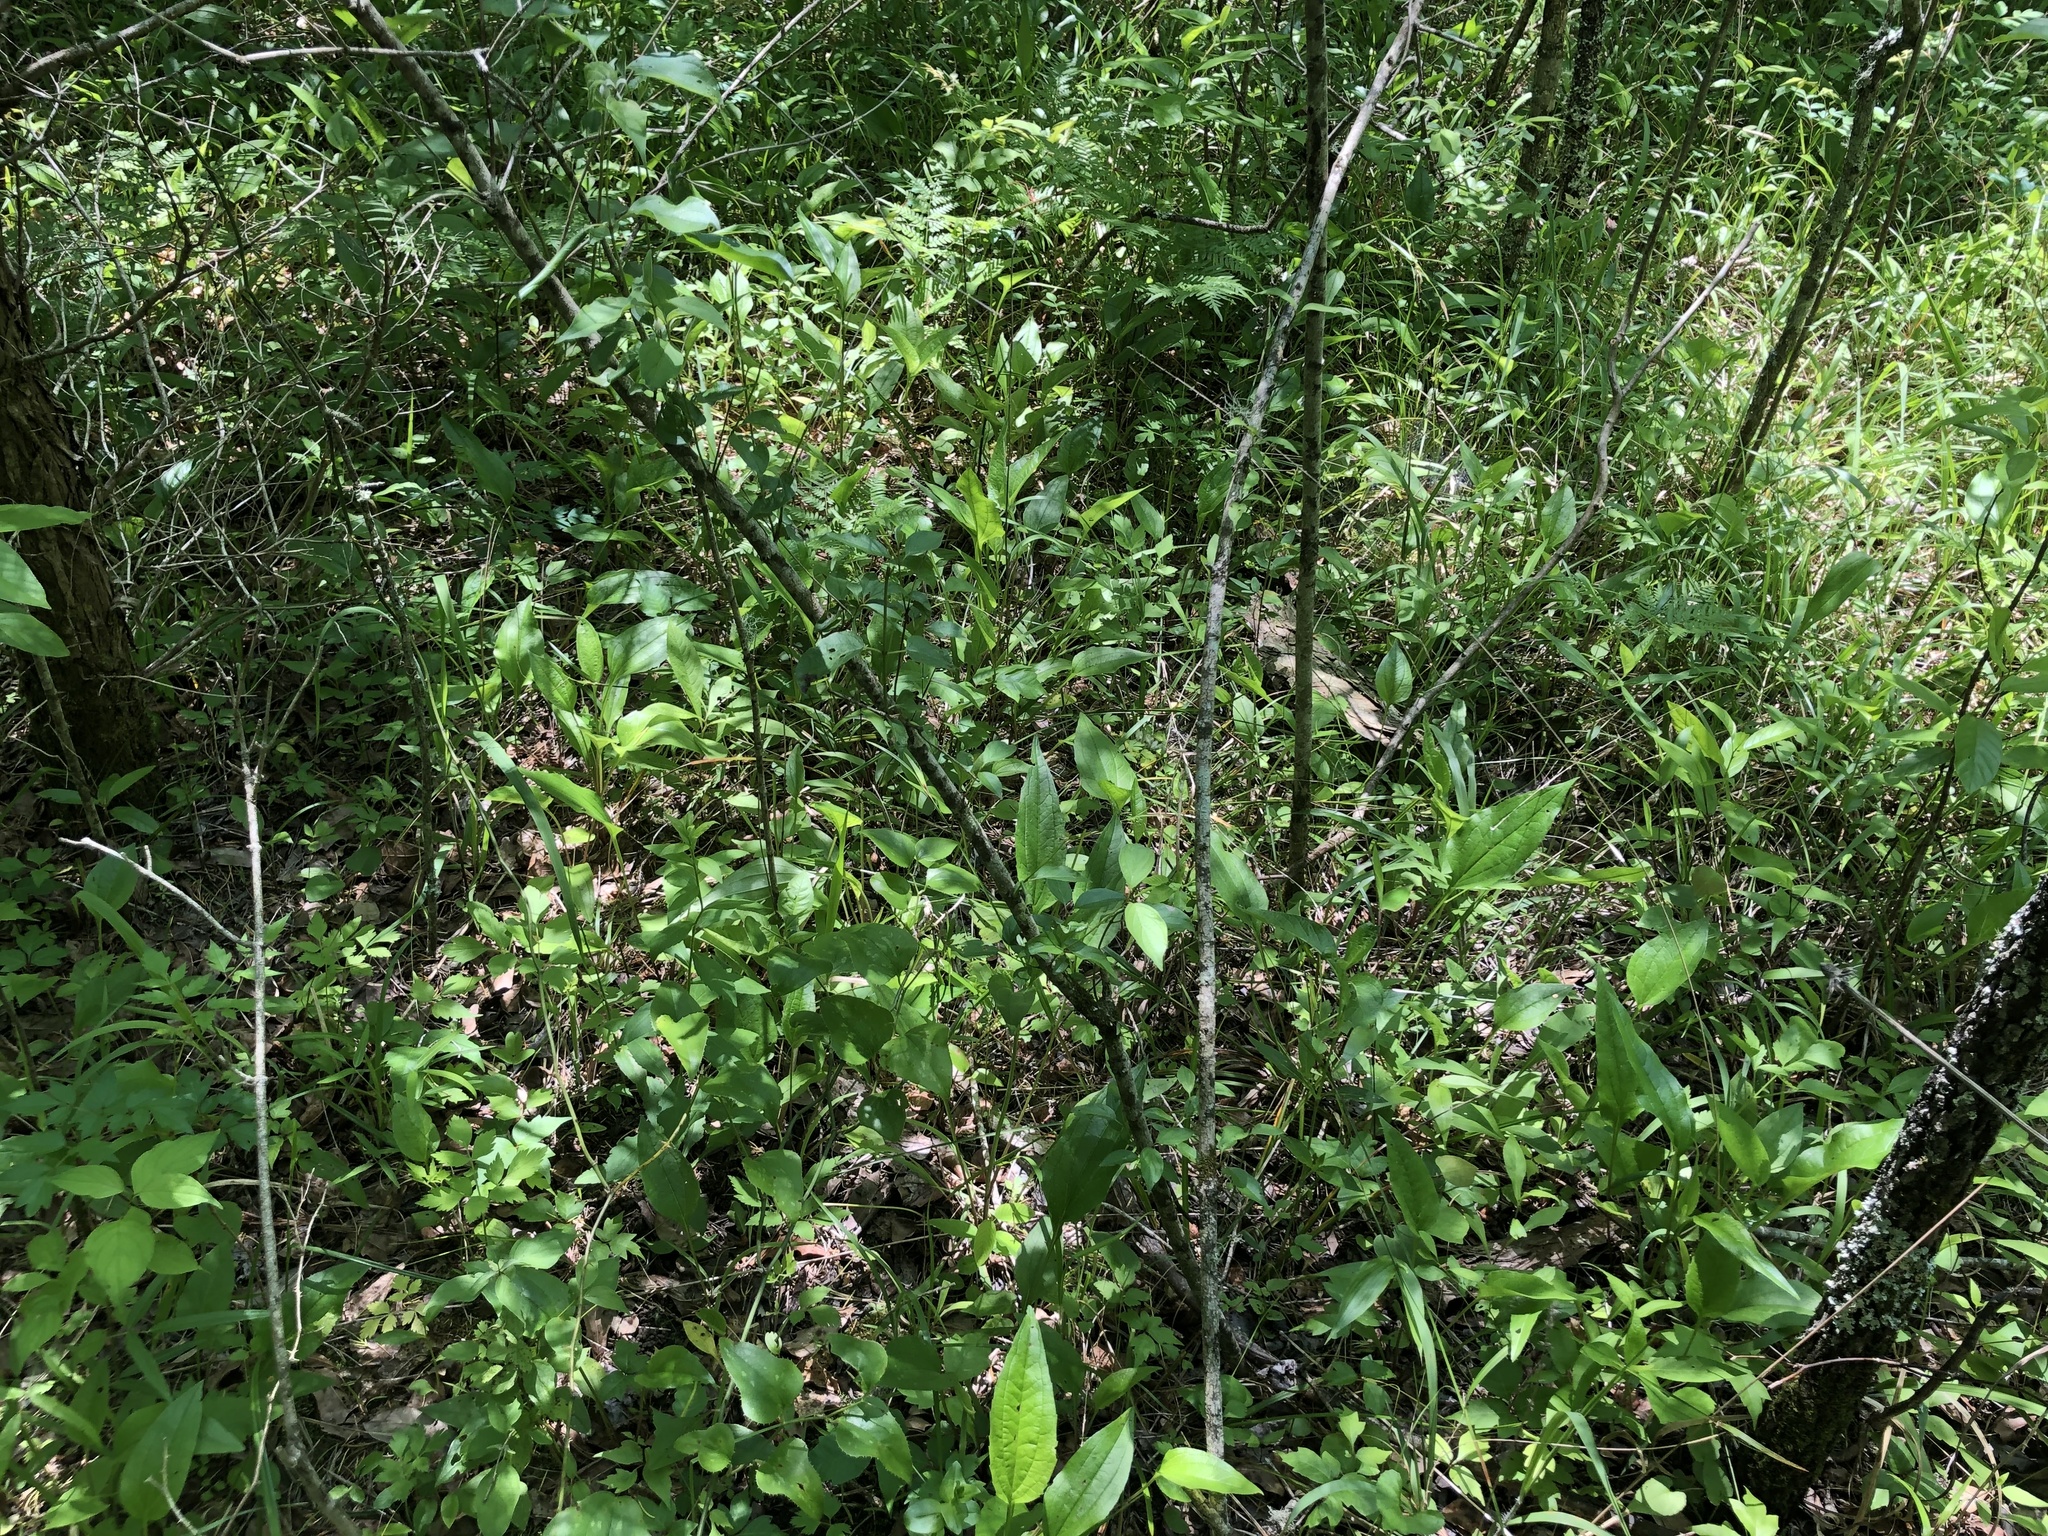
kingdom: Plantae
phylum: Tracheophyta
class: Magnoliopsida
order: Asterales
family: Asteraceae
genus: Echinacea
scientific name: Echinacea purpurea
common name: Broad-leaved purple coneflower
